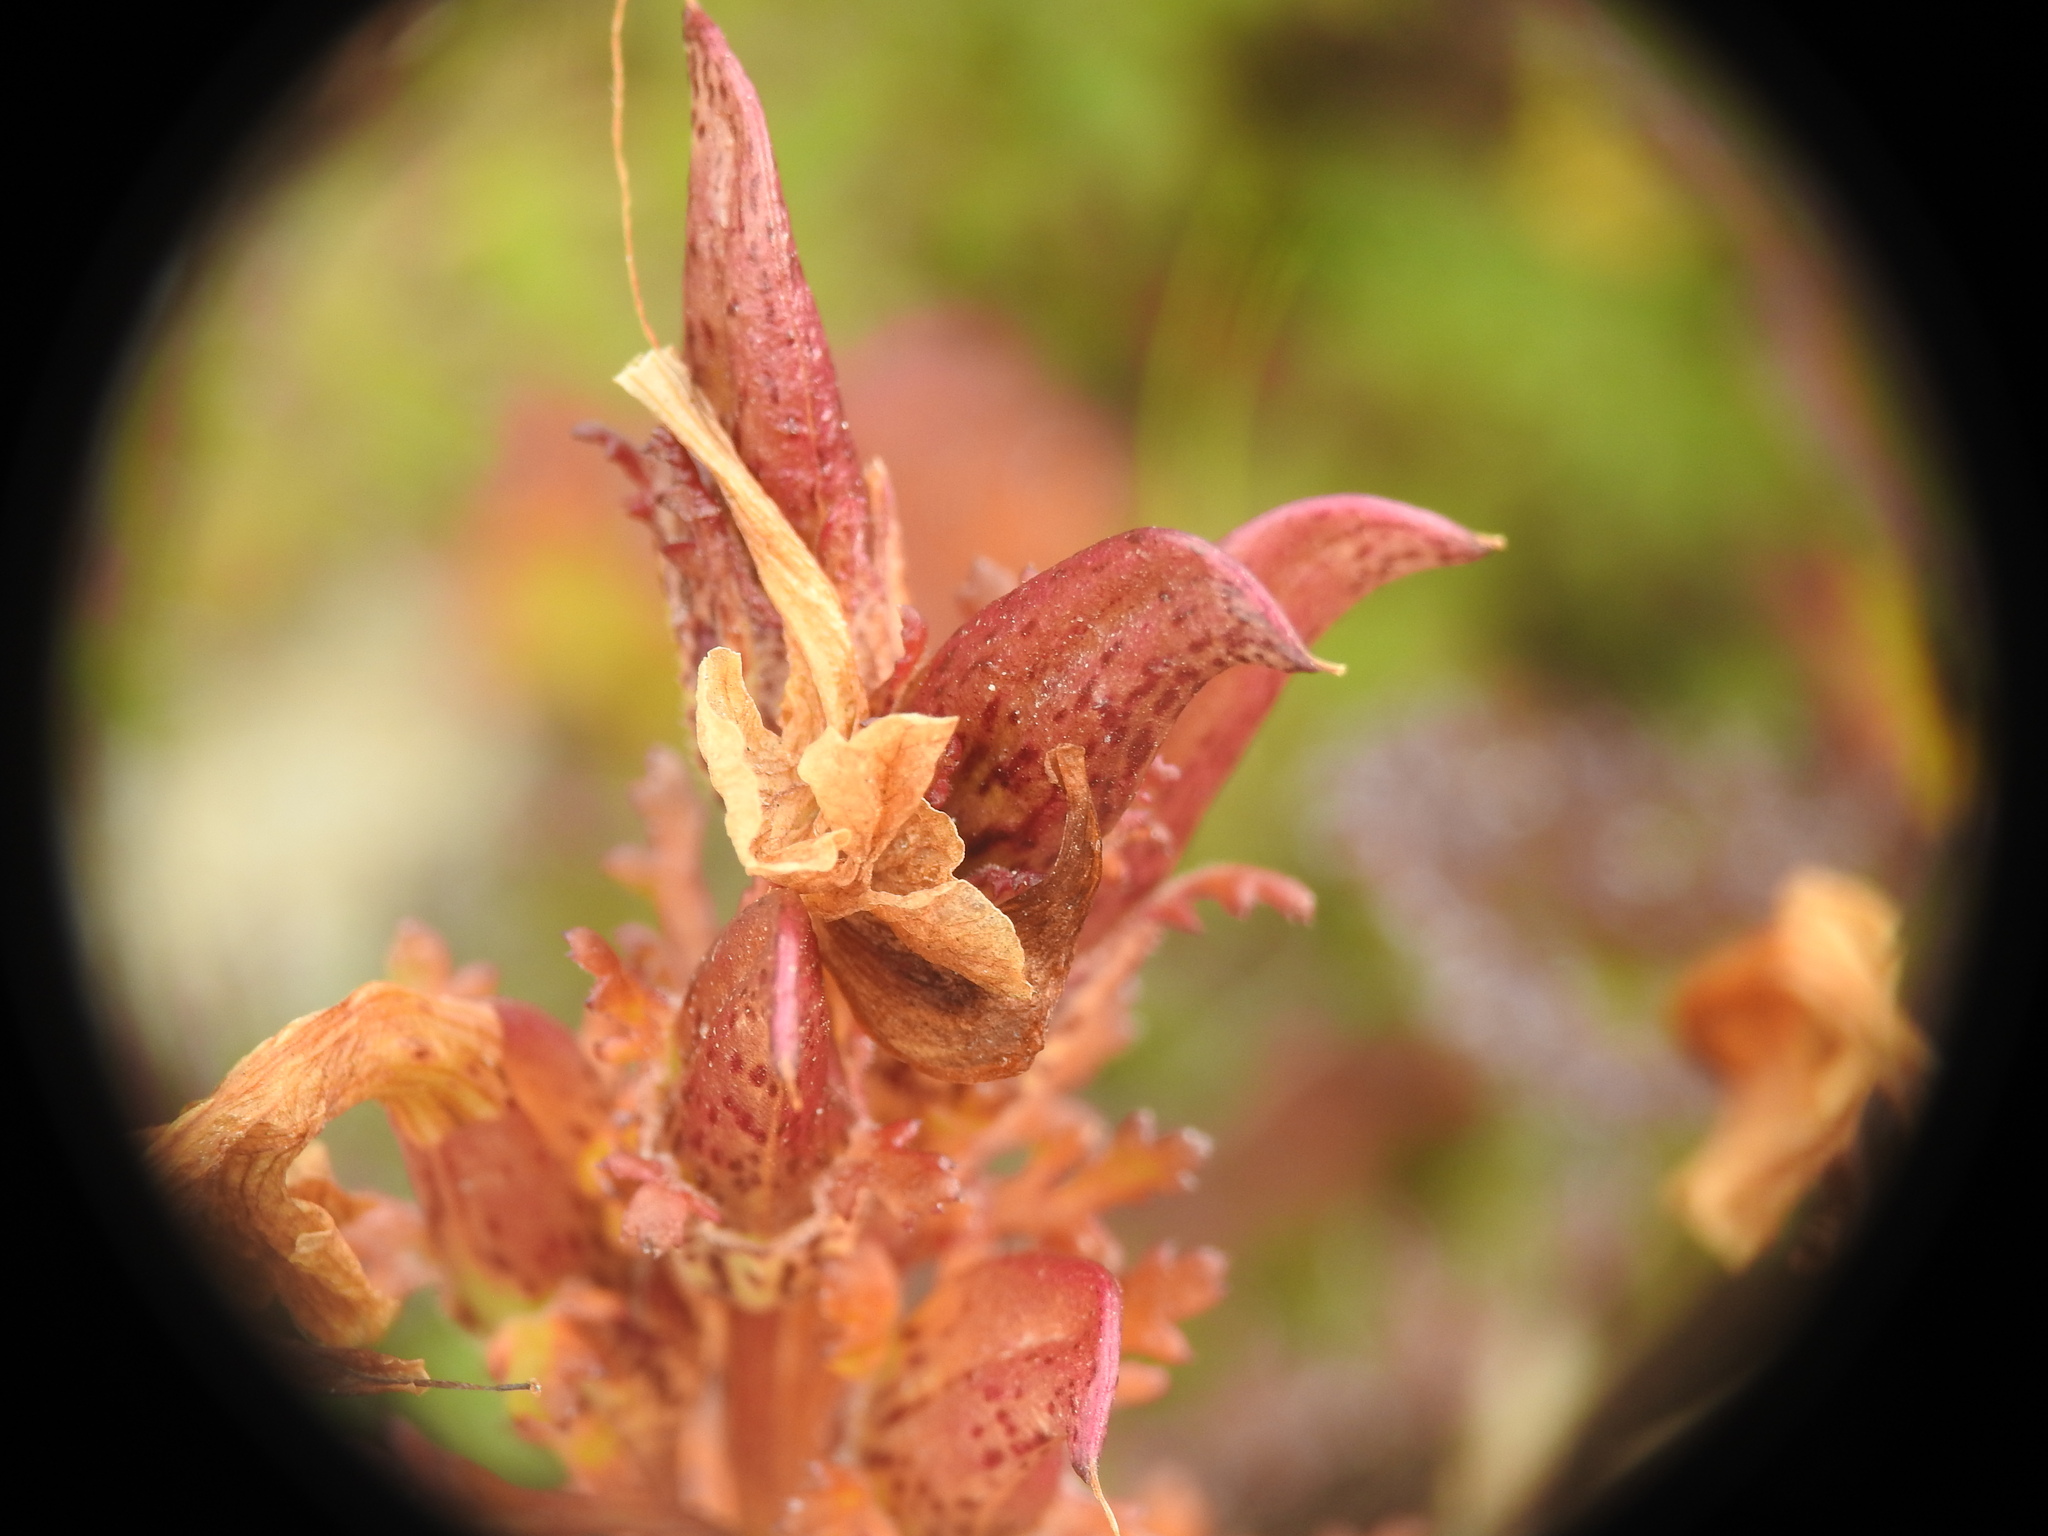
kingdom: Plantae
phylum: Tracheophyta
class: Magnoliopsida
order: Lamiales
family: Orobanchaceae
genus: Pedicularis
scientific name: Pedicularis kerneri
